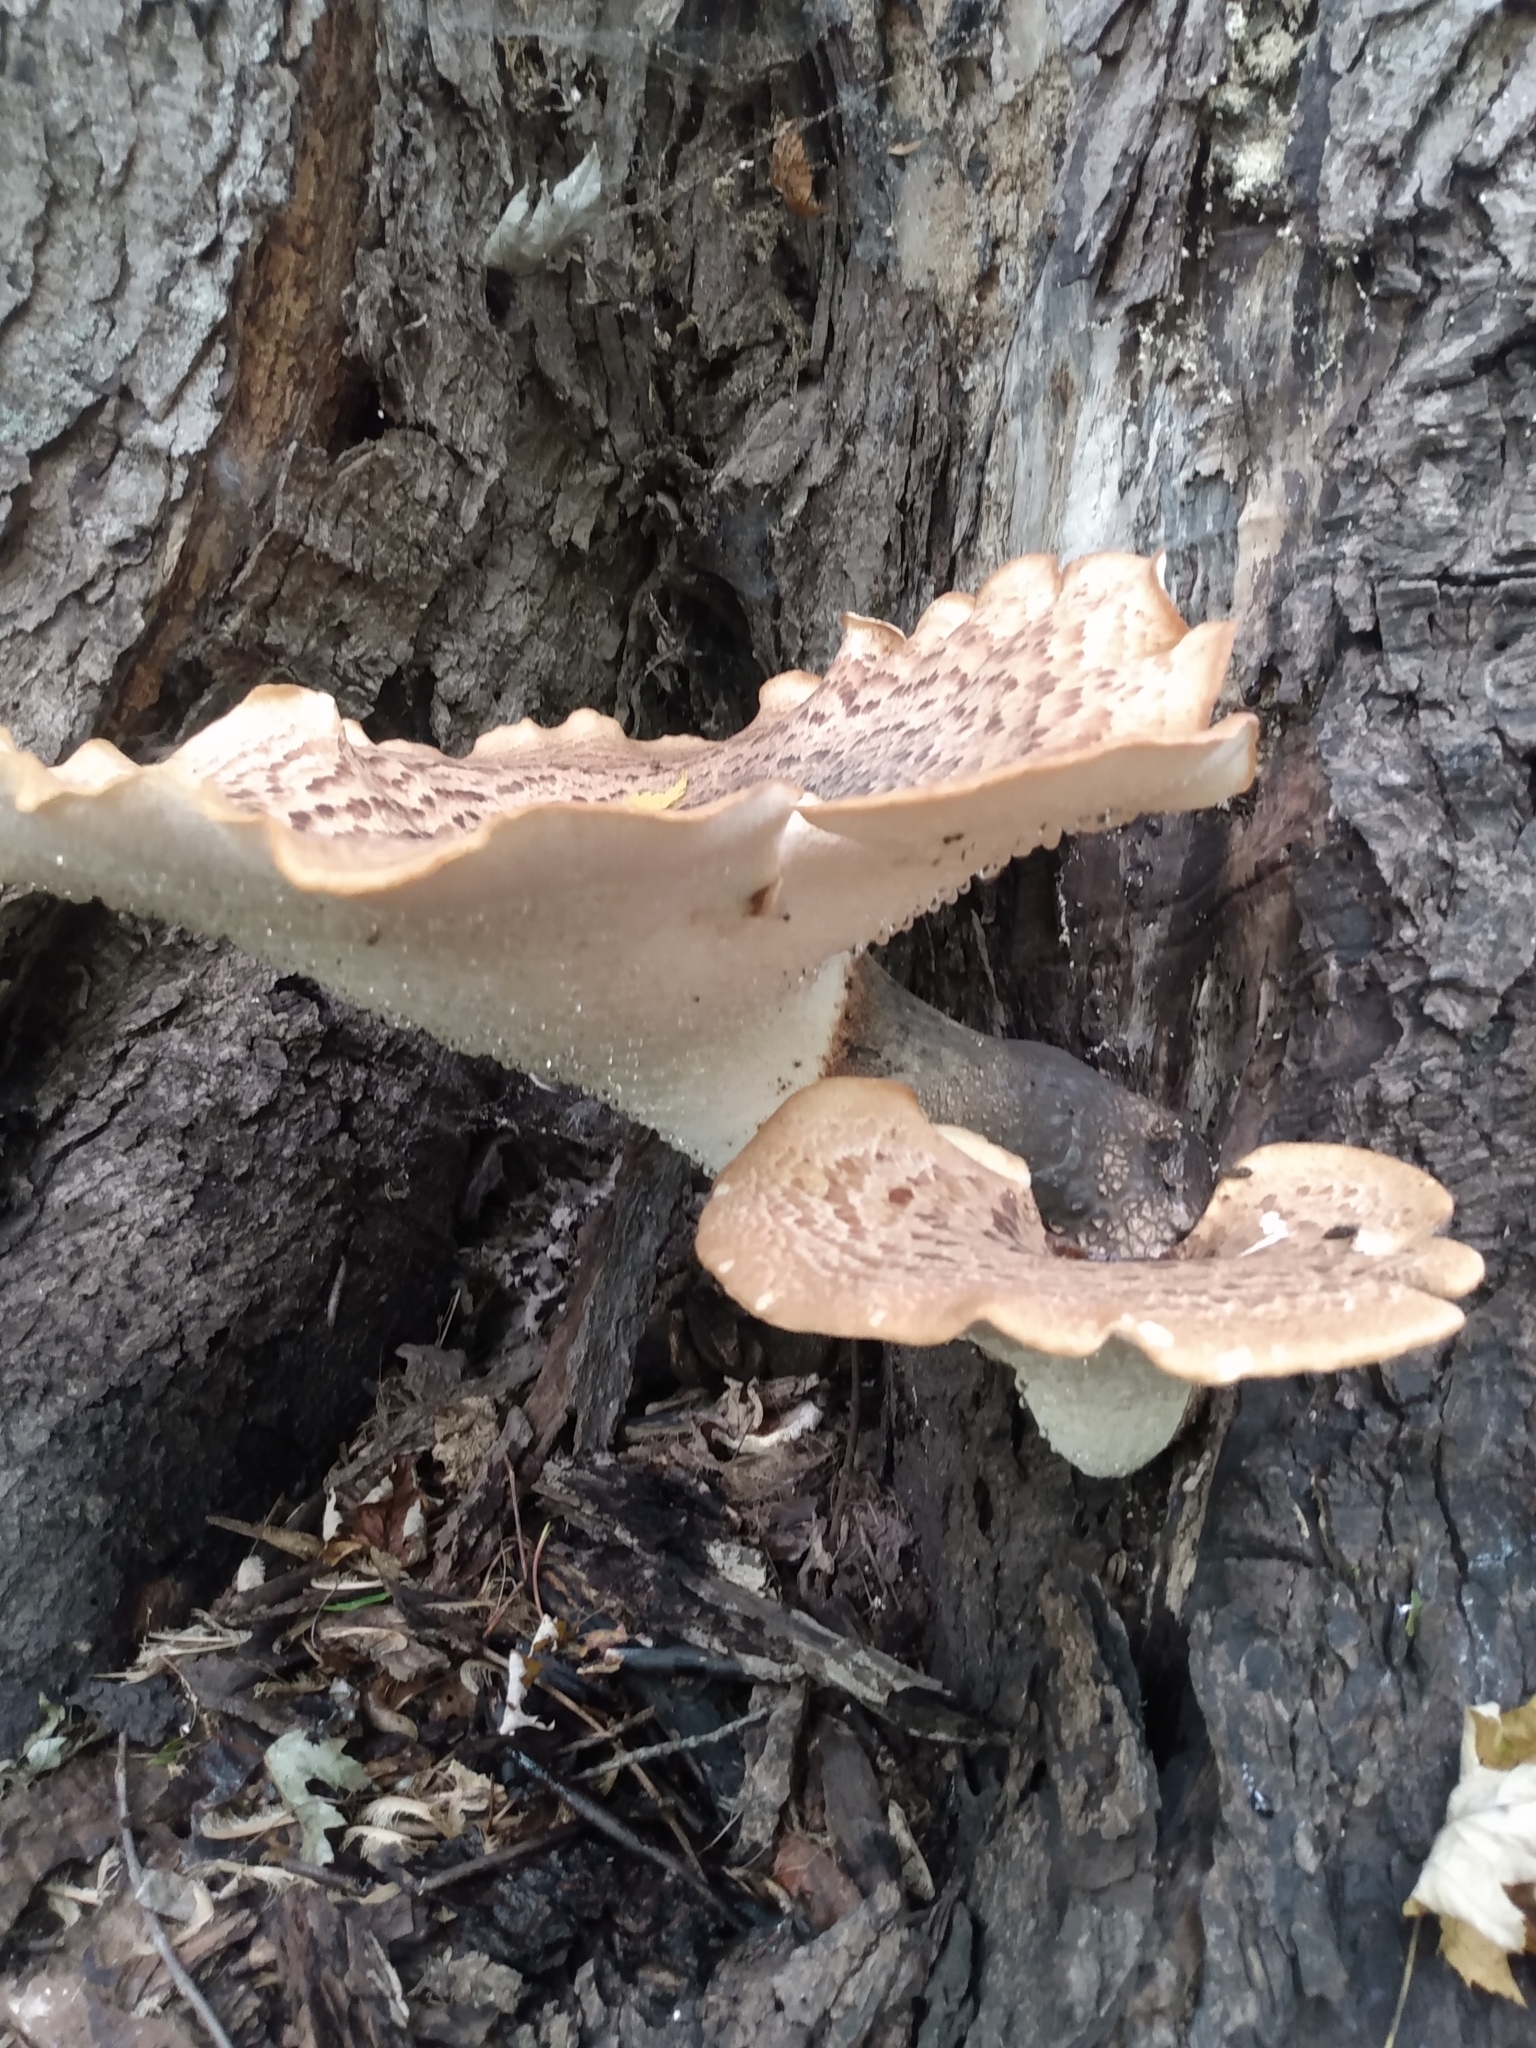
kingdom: Fungi
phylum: Basidiomycota
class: Agaricomycetes
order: Polyporales
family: Polyporaceae
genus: Cerioporus
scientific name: Cerioporus squamosus
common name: Dryad's saddle
